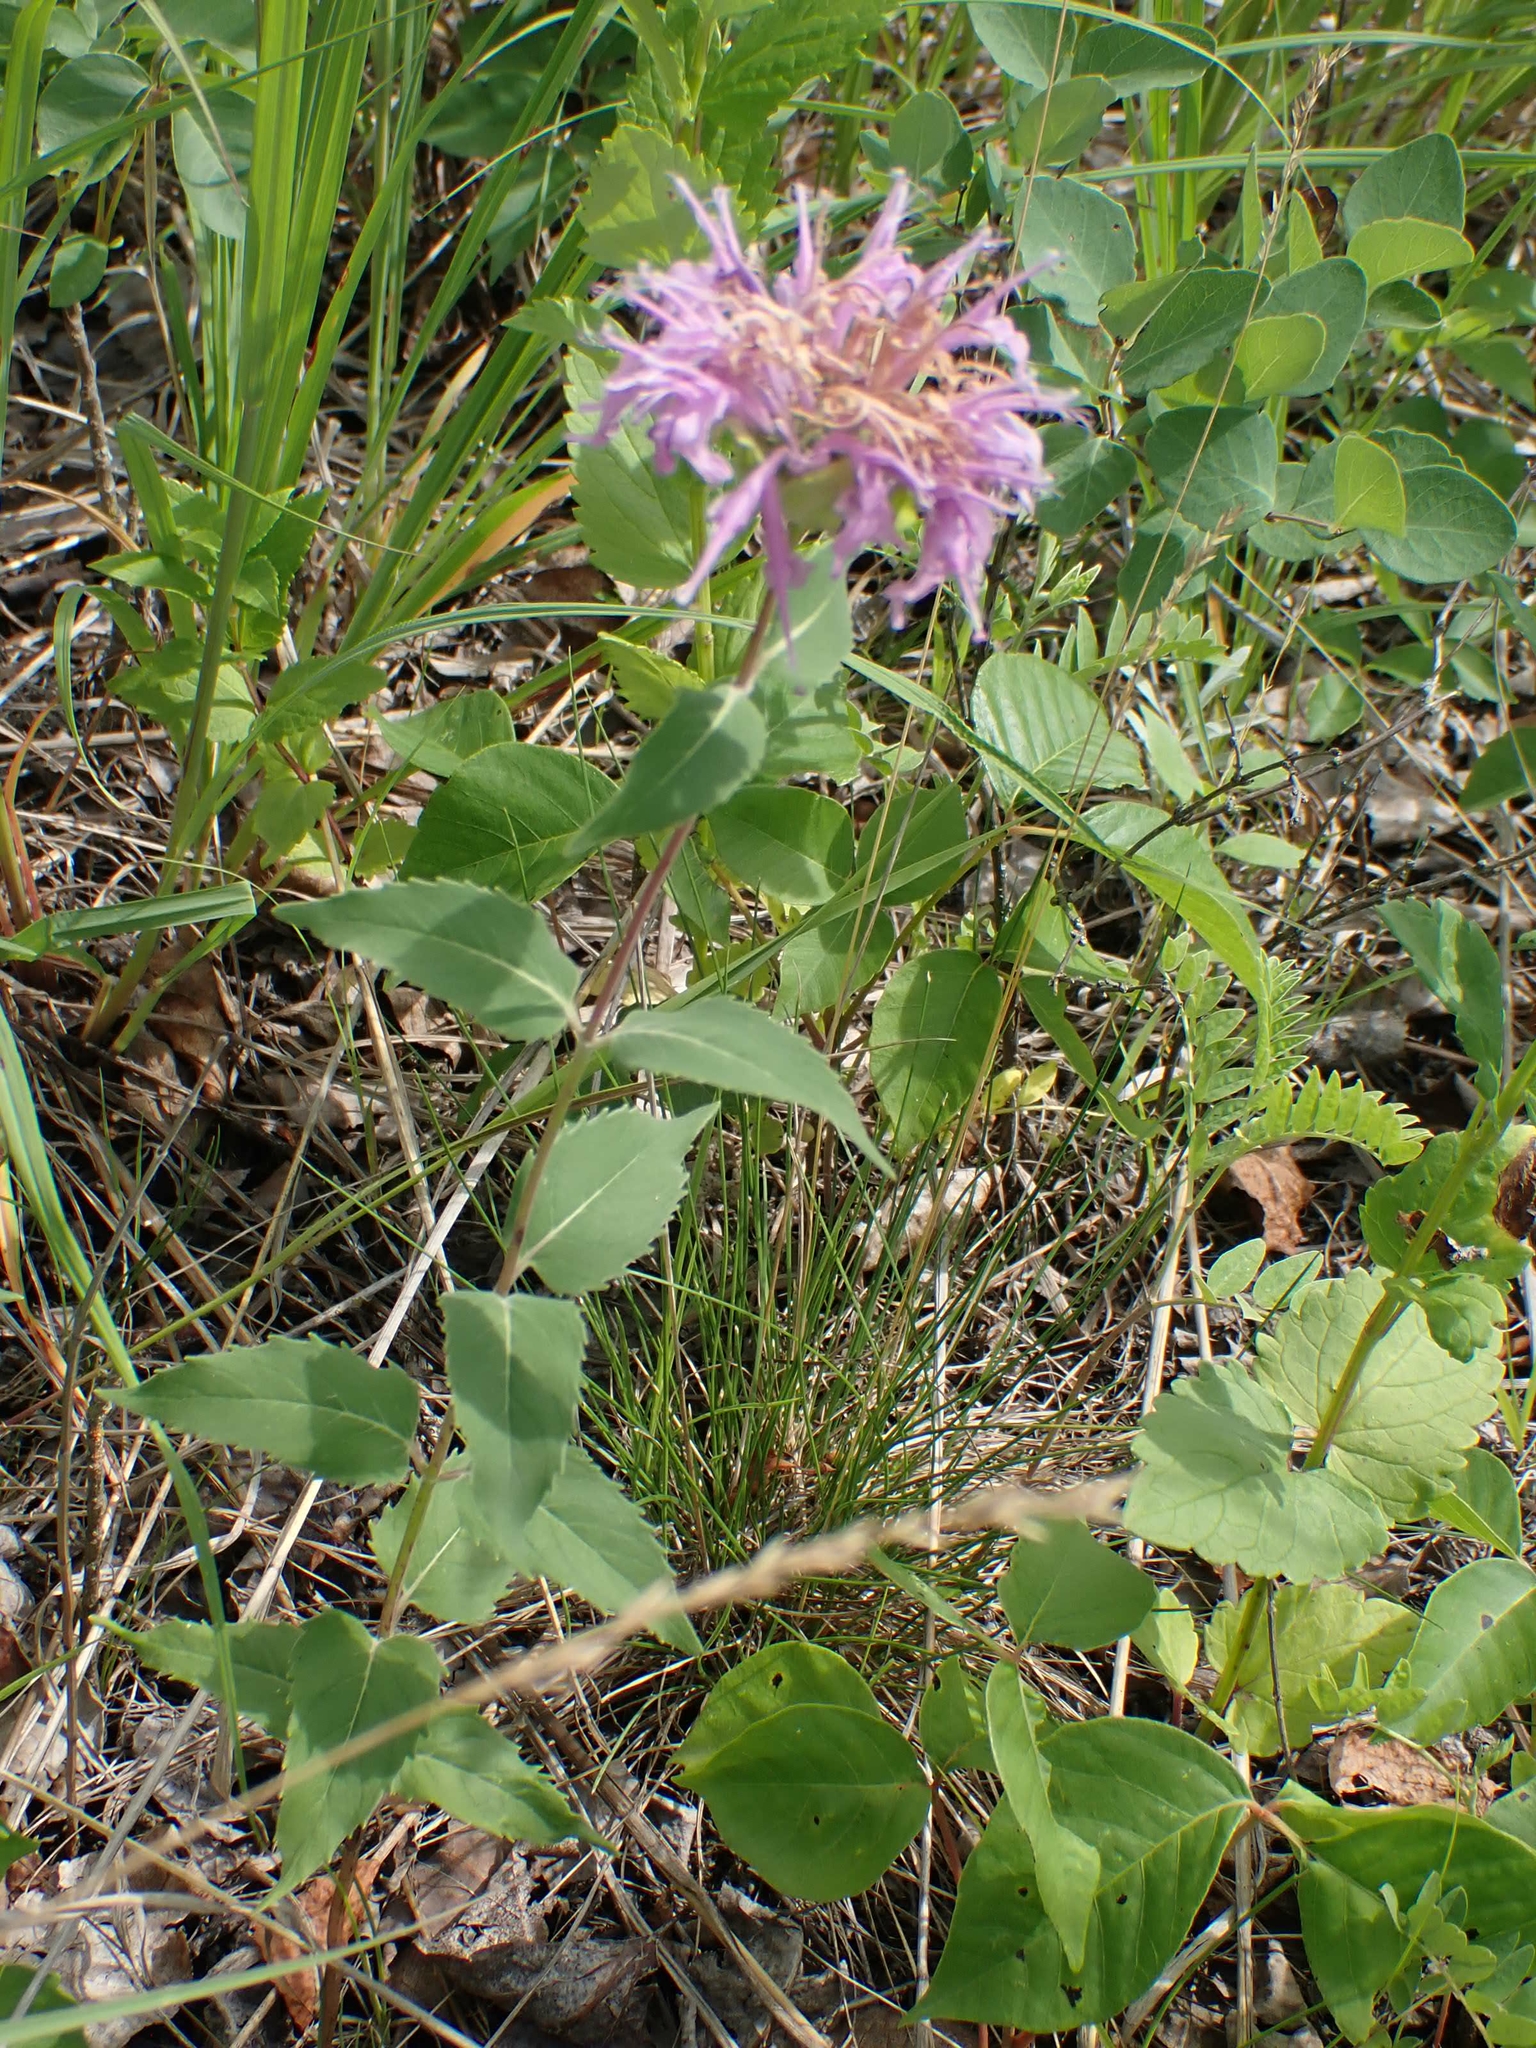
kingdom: Plantae
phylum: Tracheophyta
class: Magnoliopsida
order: Lamiales
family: Lamiaceae
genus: Monarda
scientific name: Monarda fistulosa
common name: Purple beebalm
